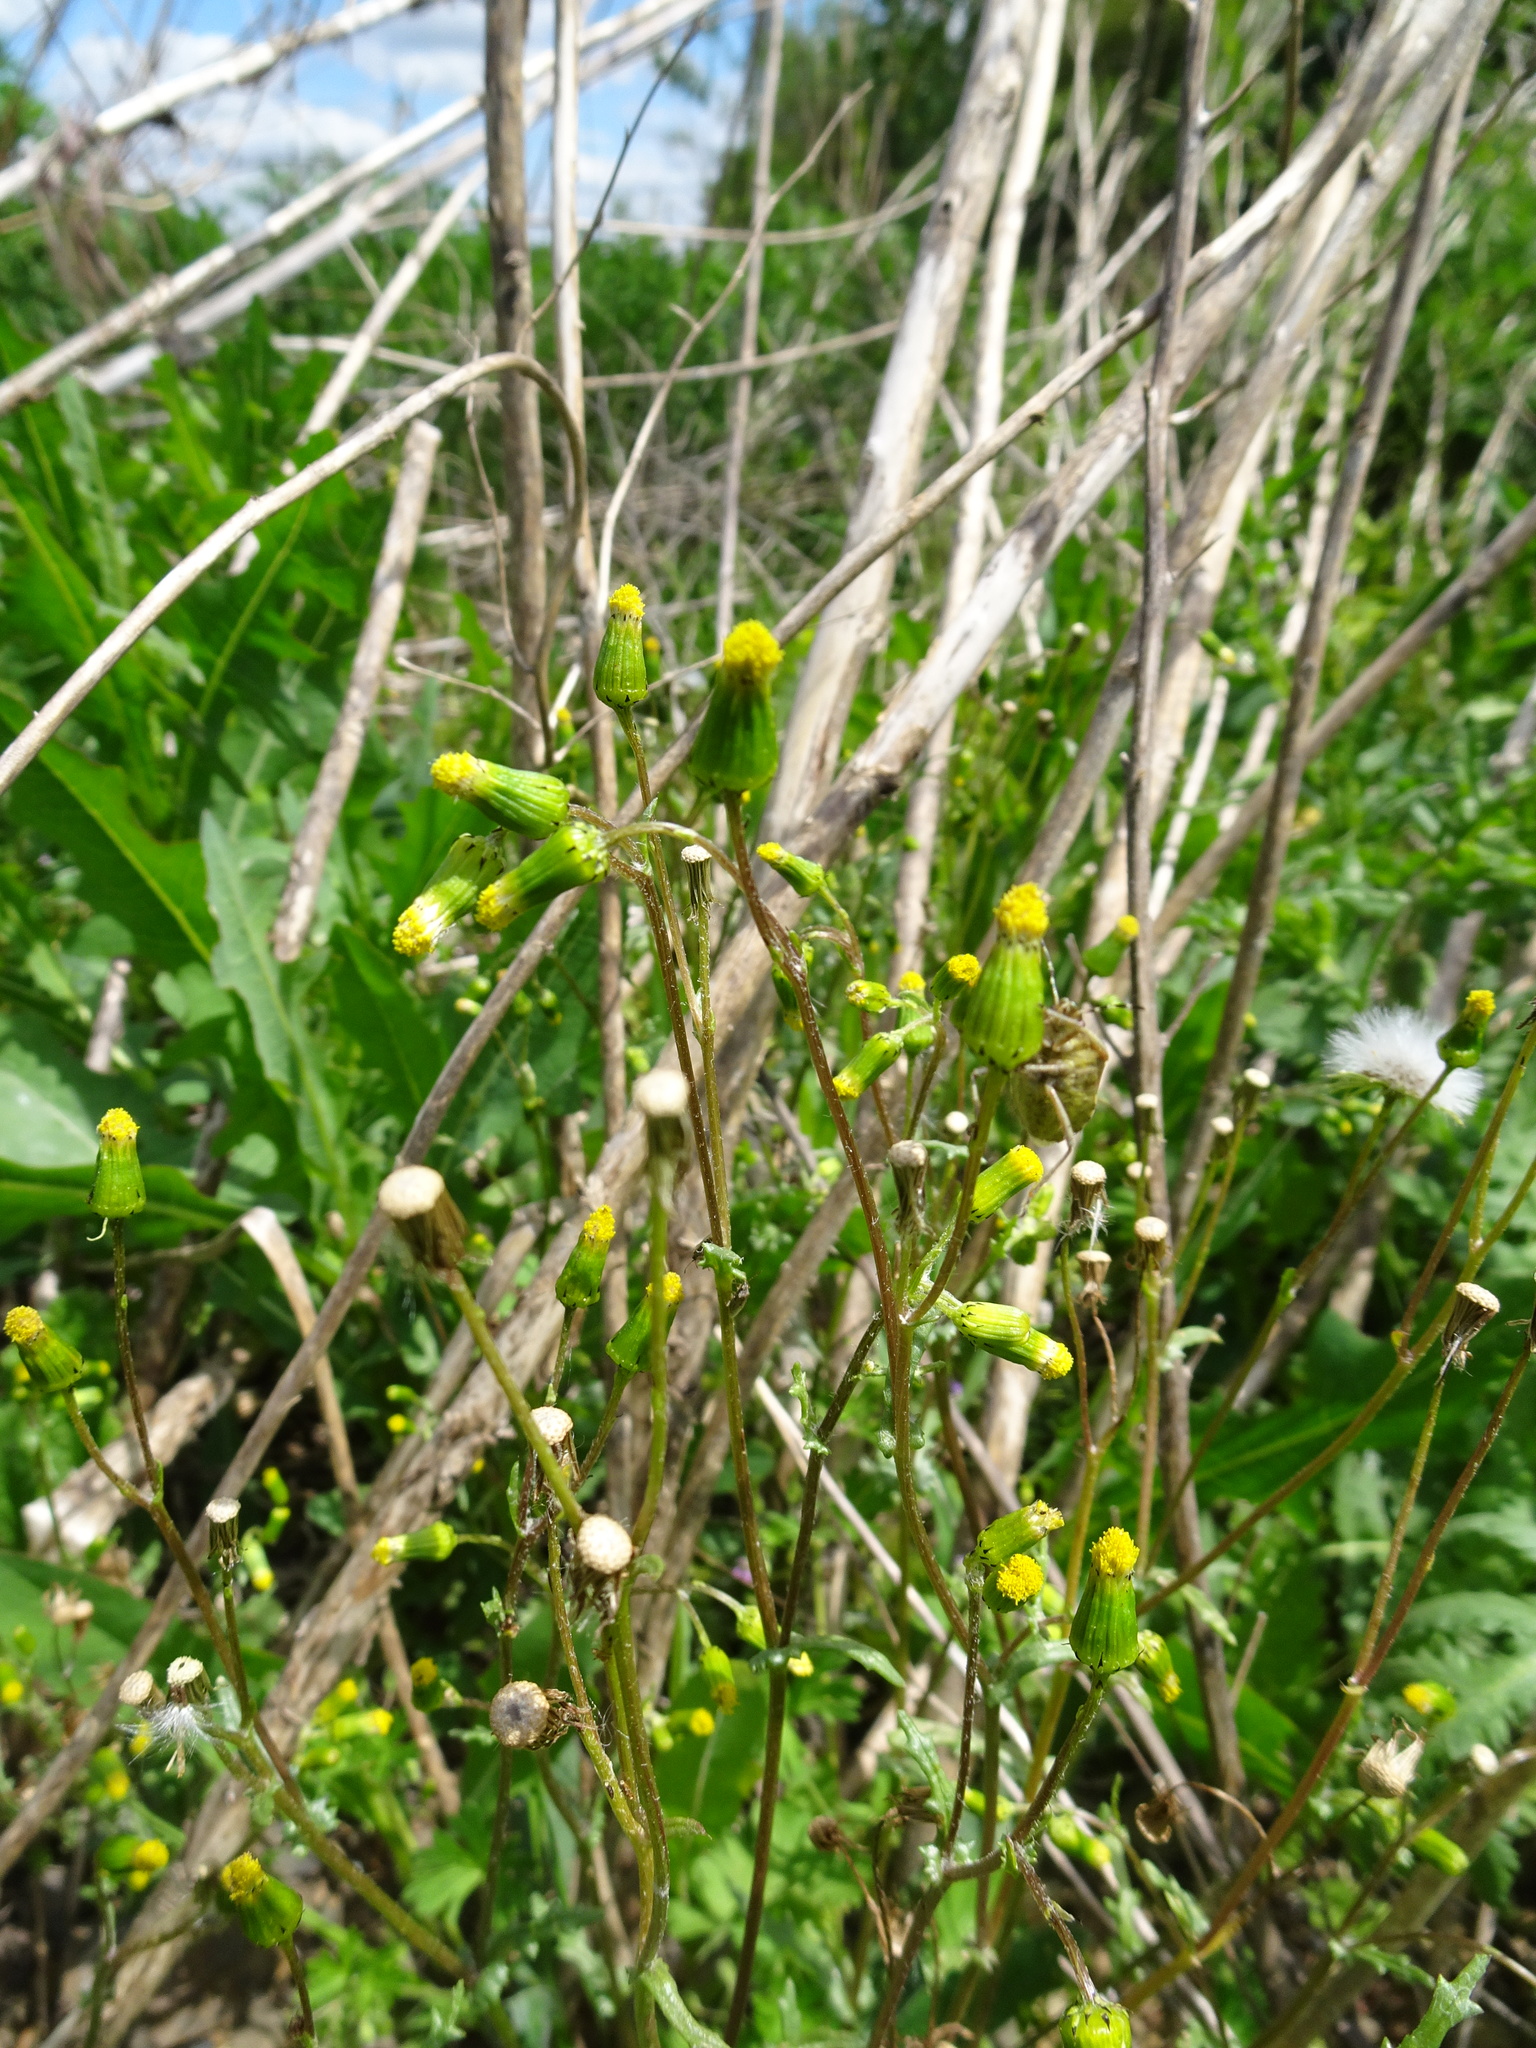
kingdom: Plantae
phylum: Tracheophyta
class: Magnoliopsida
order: Asterales
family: Asteraceae
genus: Senecio
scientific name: Senecio vulgaris
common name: Old-man-in-the-spring
